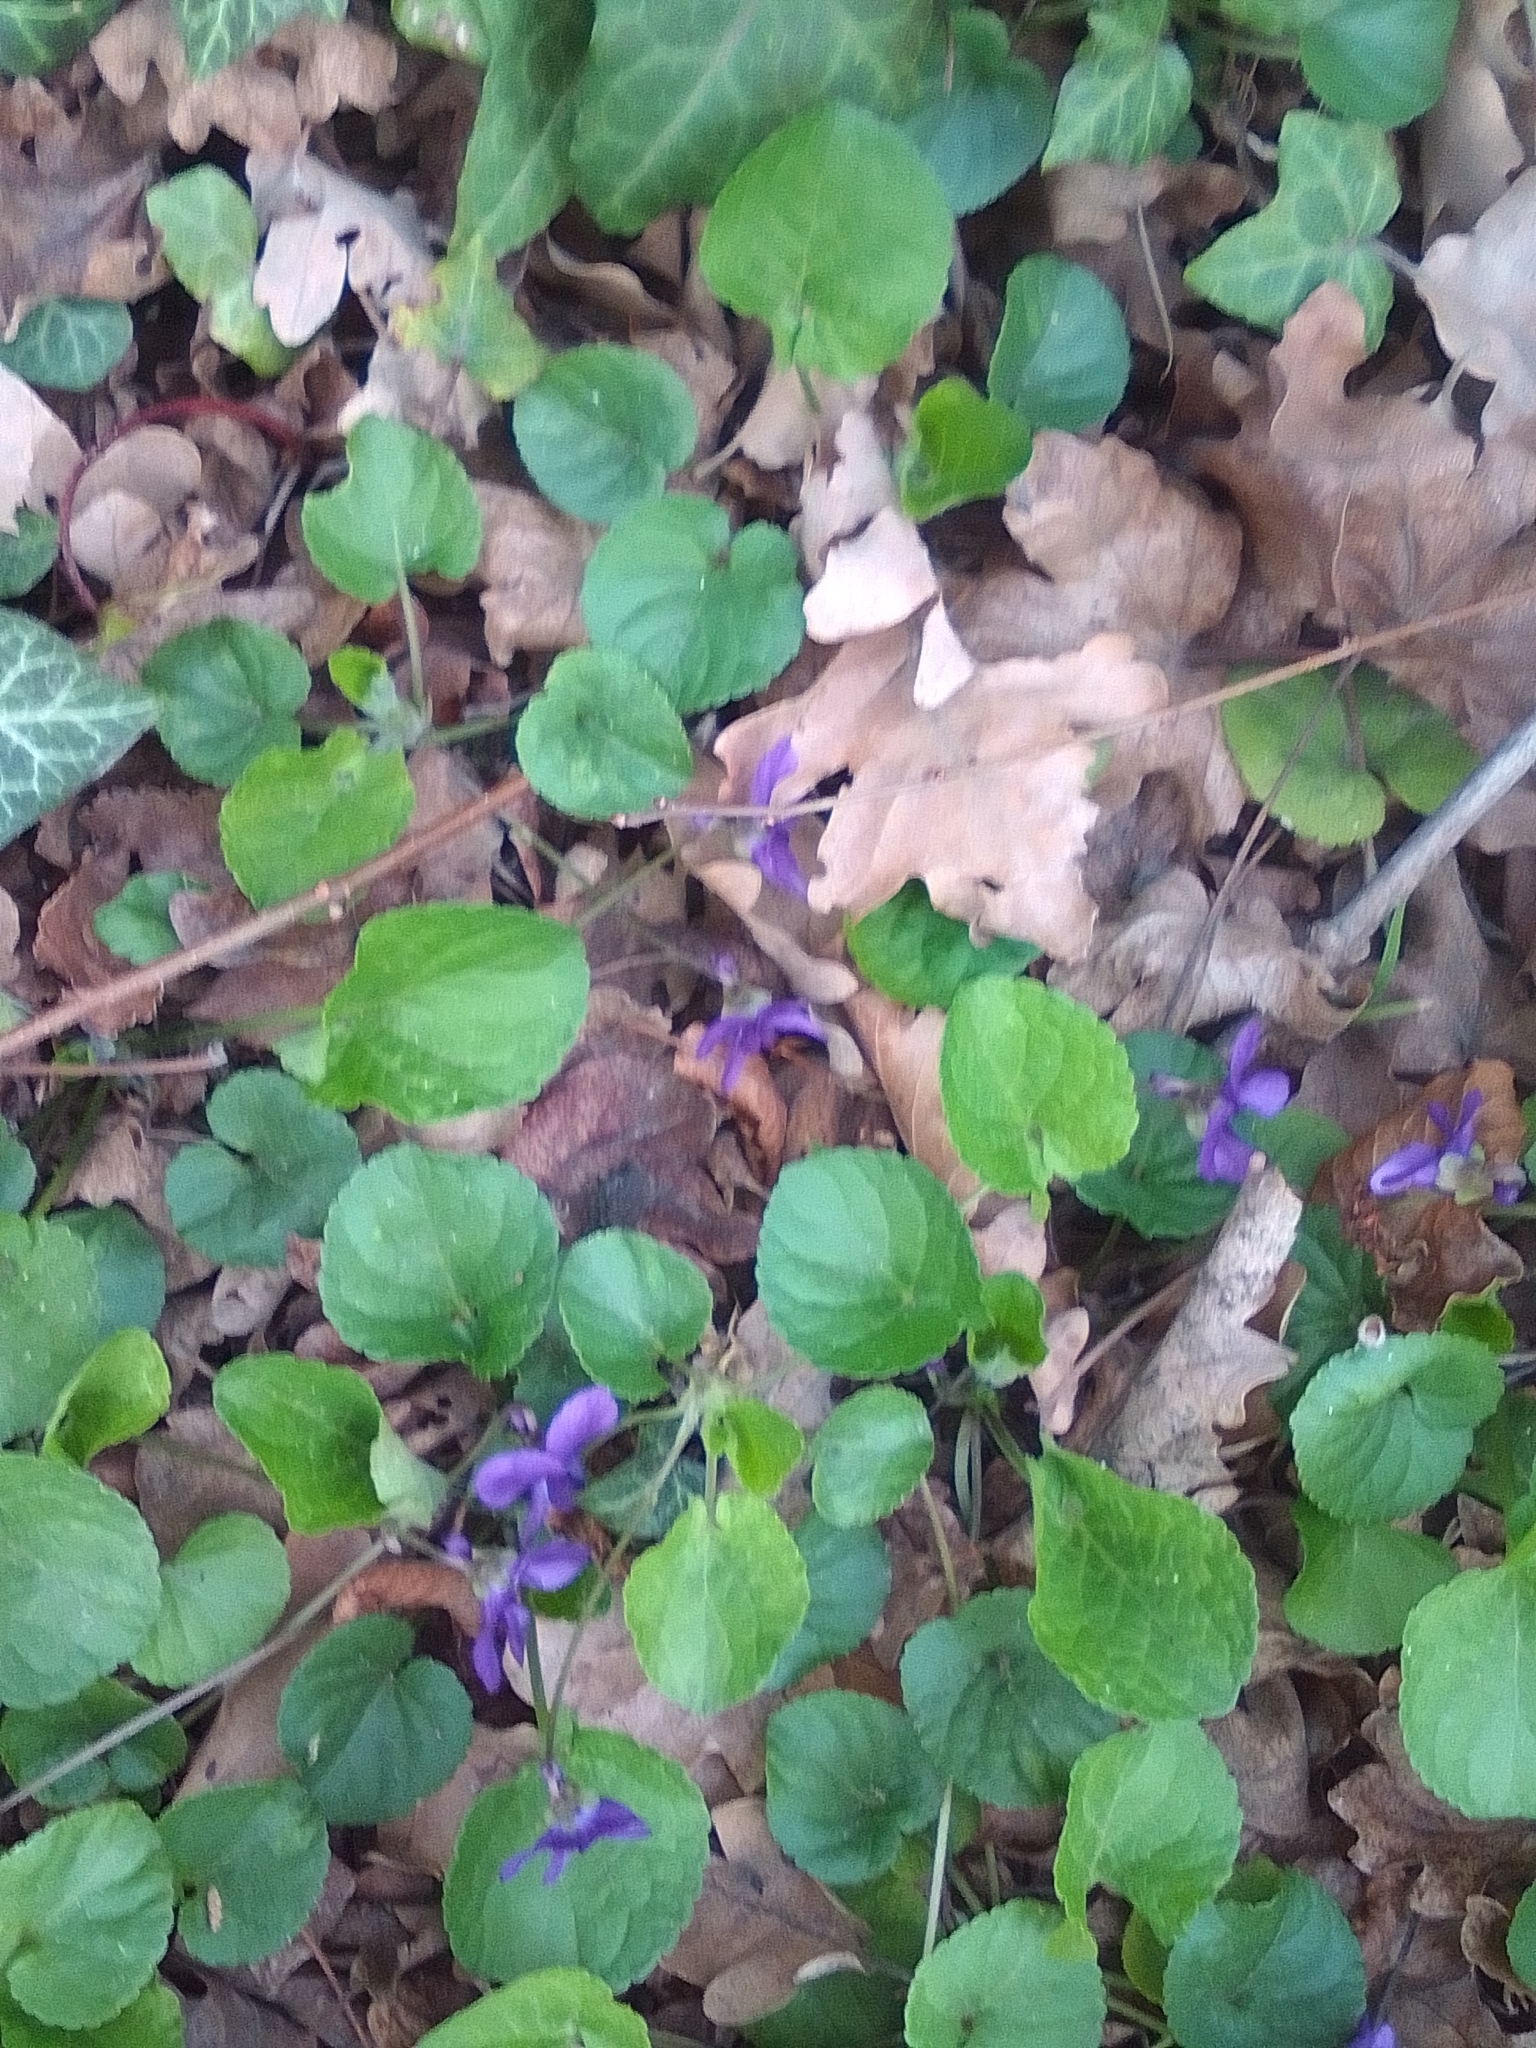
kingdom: Plantae
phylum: Tracheophyta
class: Magnoliopsida
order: Malpighiales
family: Violaceae
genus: Viola
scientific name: Viola odorata
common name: Sweet violet
